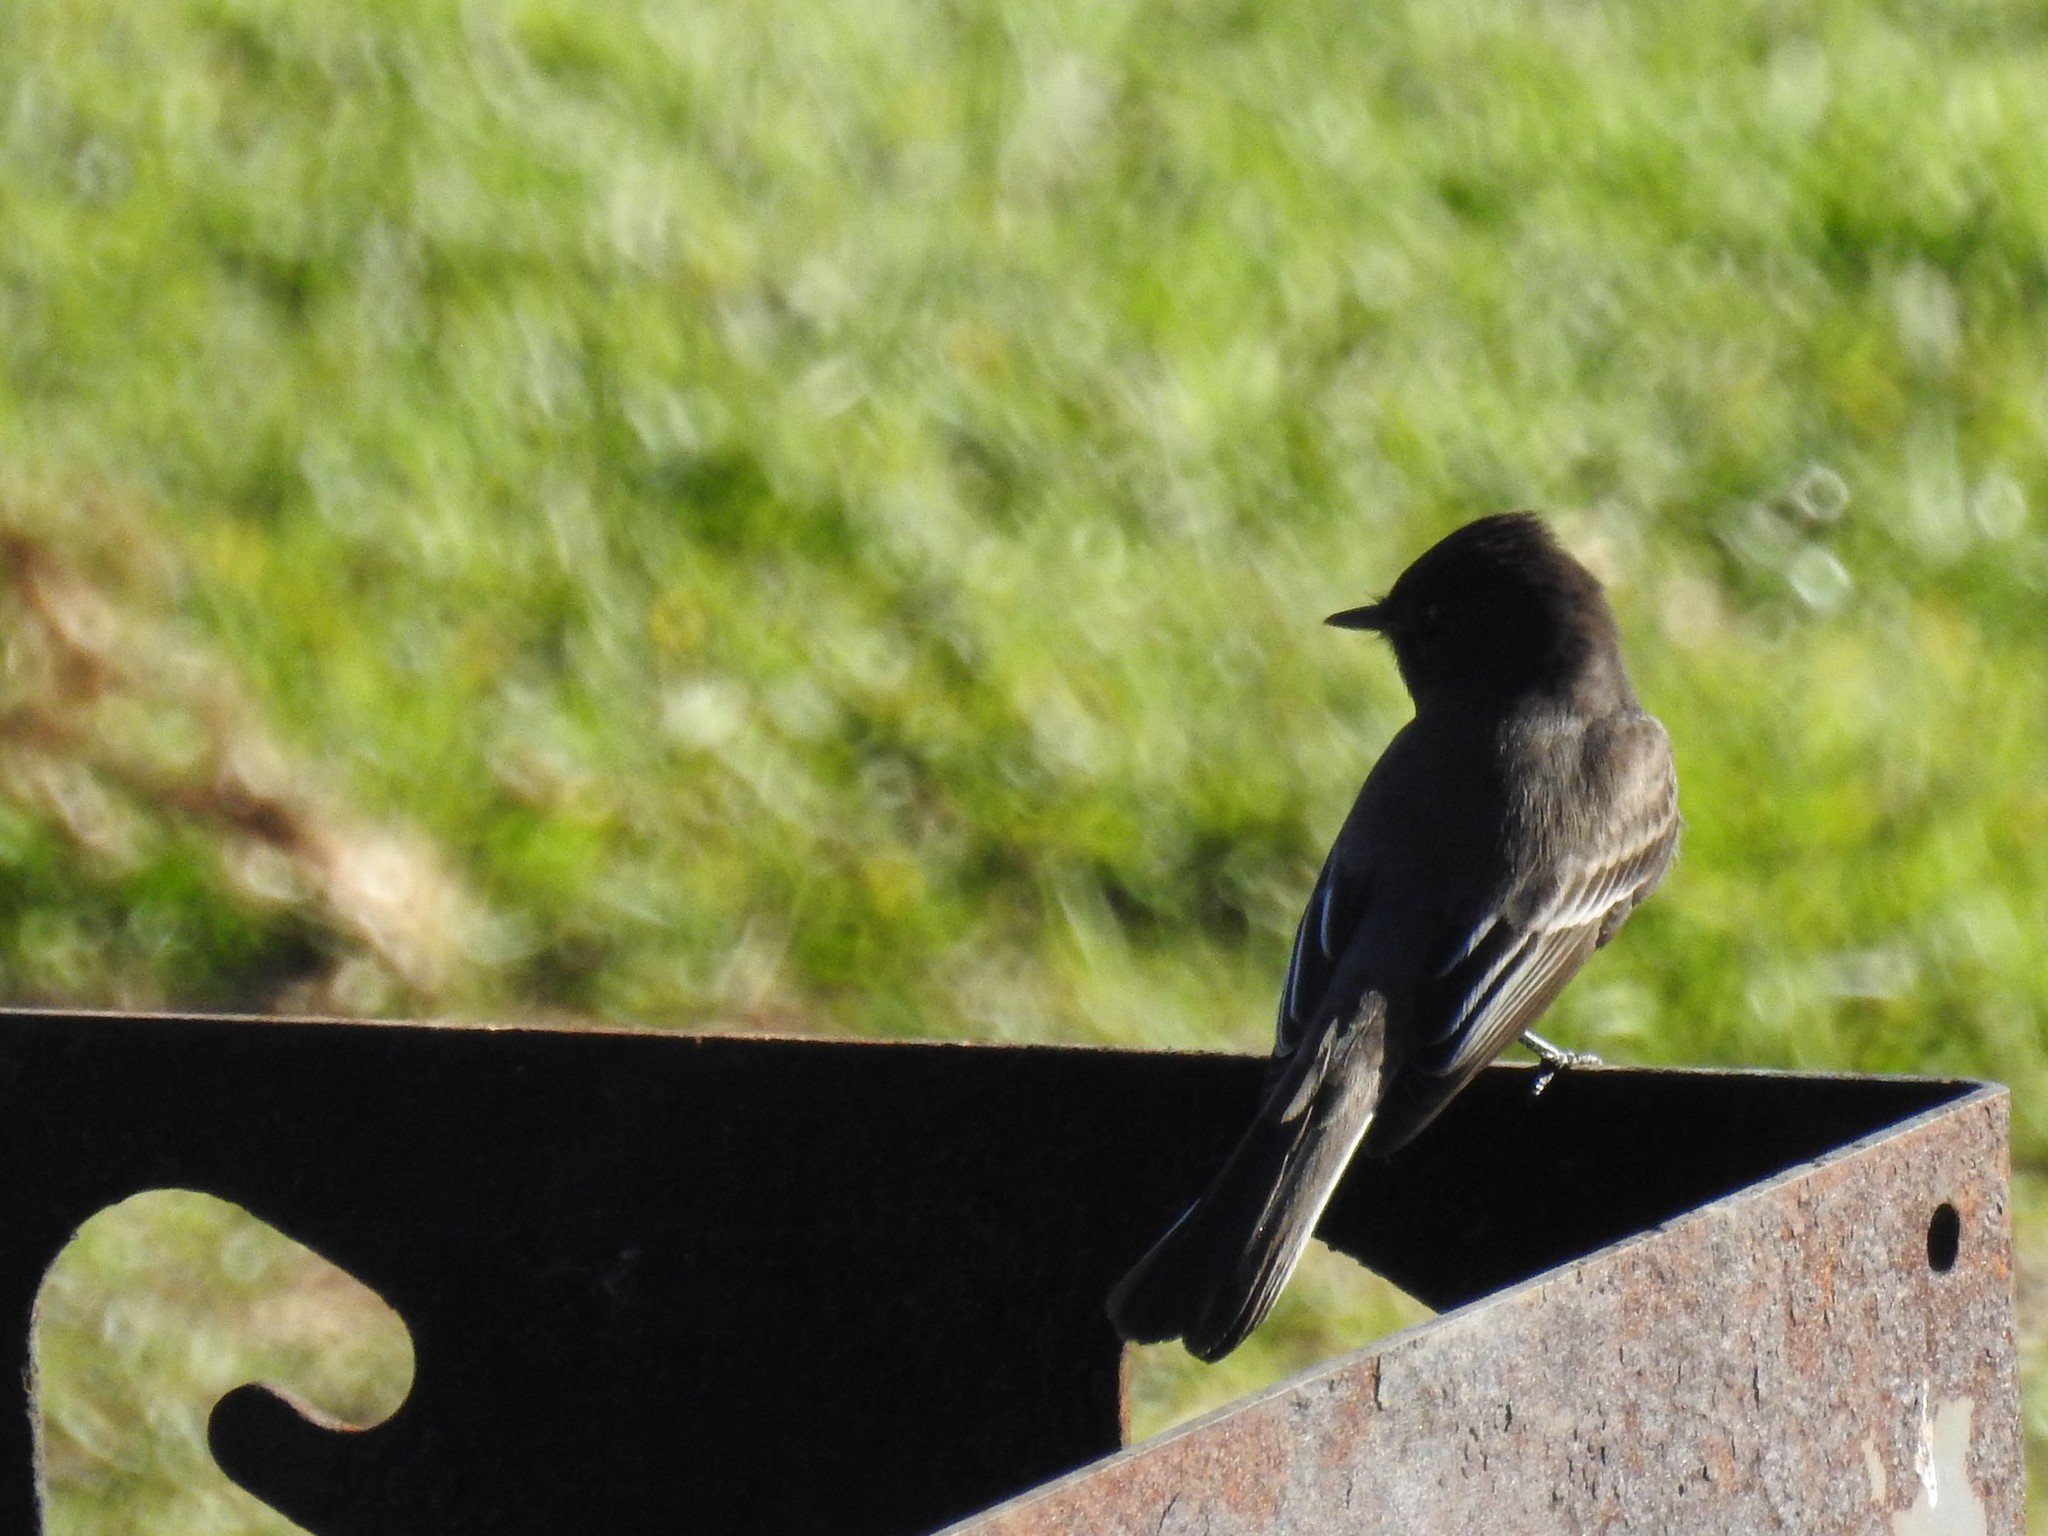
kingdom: Animalia
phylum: Chordata
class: Aves
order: Passeriformes
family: Tyrannidae
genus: Sayornis
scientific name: Sayornis nigricans
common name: Black phoebe
